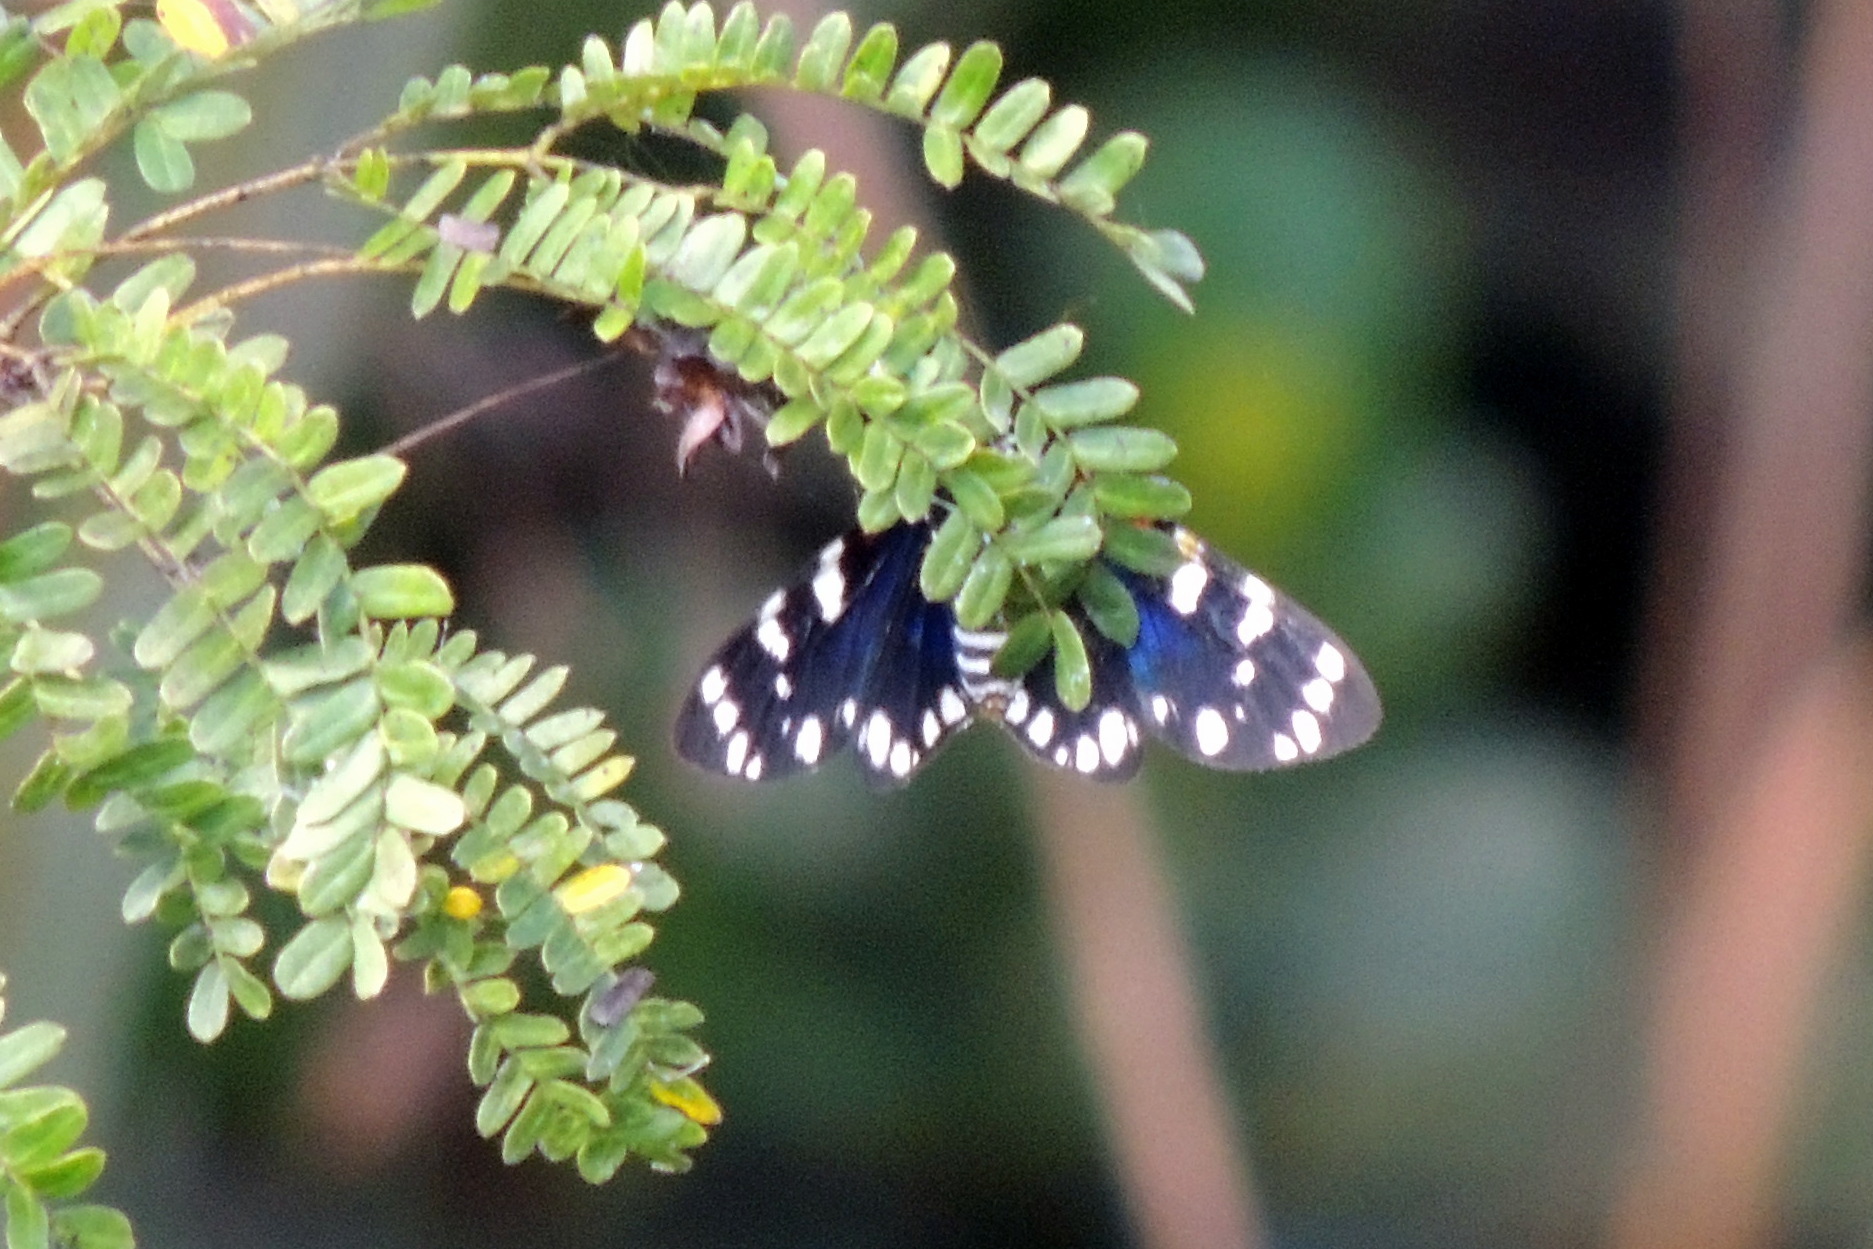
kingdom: Animalia
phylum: Arthropoda
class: Insecta
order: Lepidoptera
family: Erebidae
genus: Composia
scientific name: Composia fidelissima
